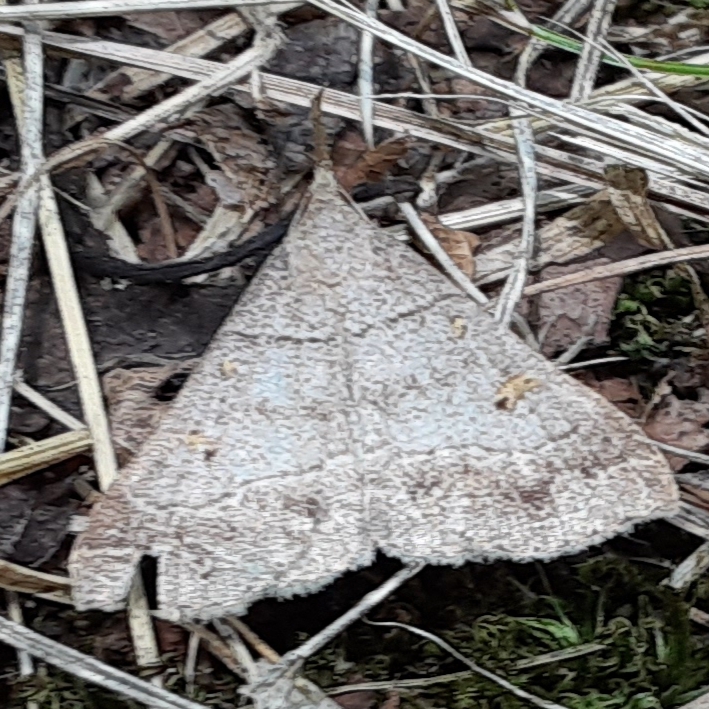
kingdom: Animalia
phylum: Arthropoda
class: Insecta
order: Lepidoptera
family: Erebidae
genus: Renia
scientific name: Renia flavipunctalis
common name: Yellow-spotted renia moth
